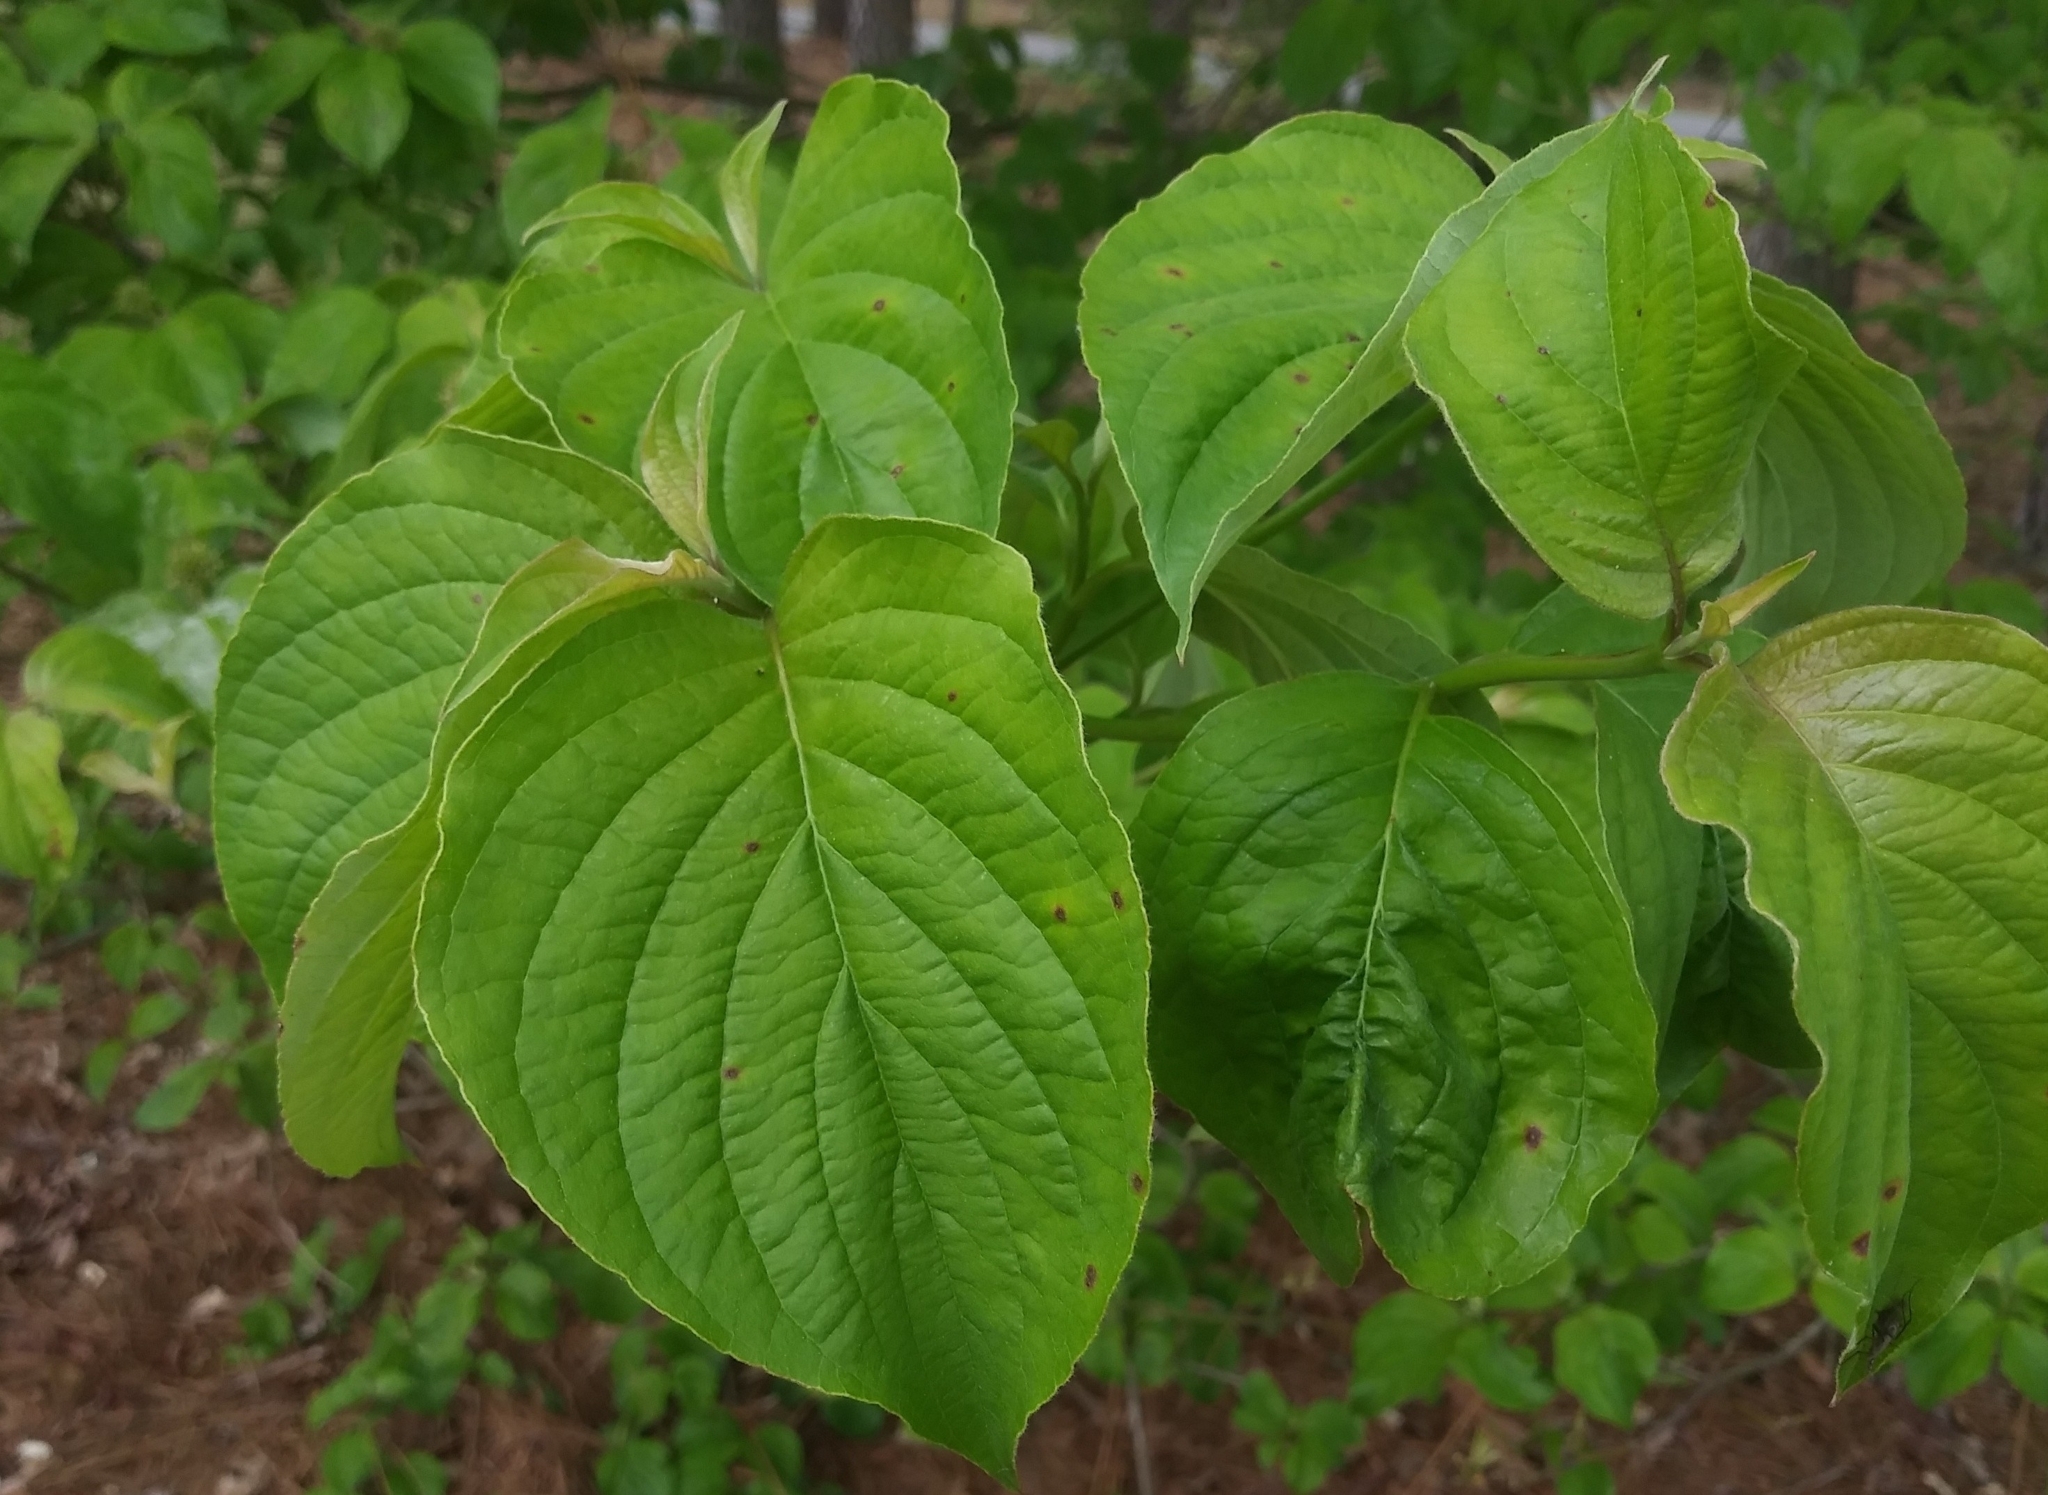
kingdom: Plantae
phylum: Tracheophyta
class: Magnoliopsida
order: Cornales
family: Cornaceae
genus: Cornus
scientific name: Cornus florida
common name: Flowering dogwood
